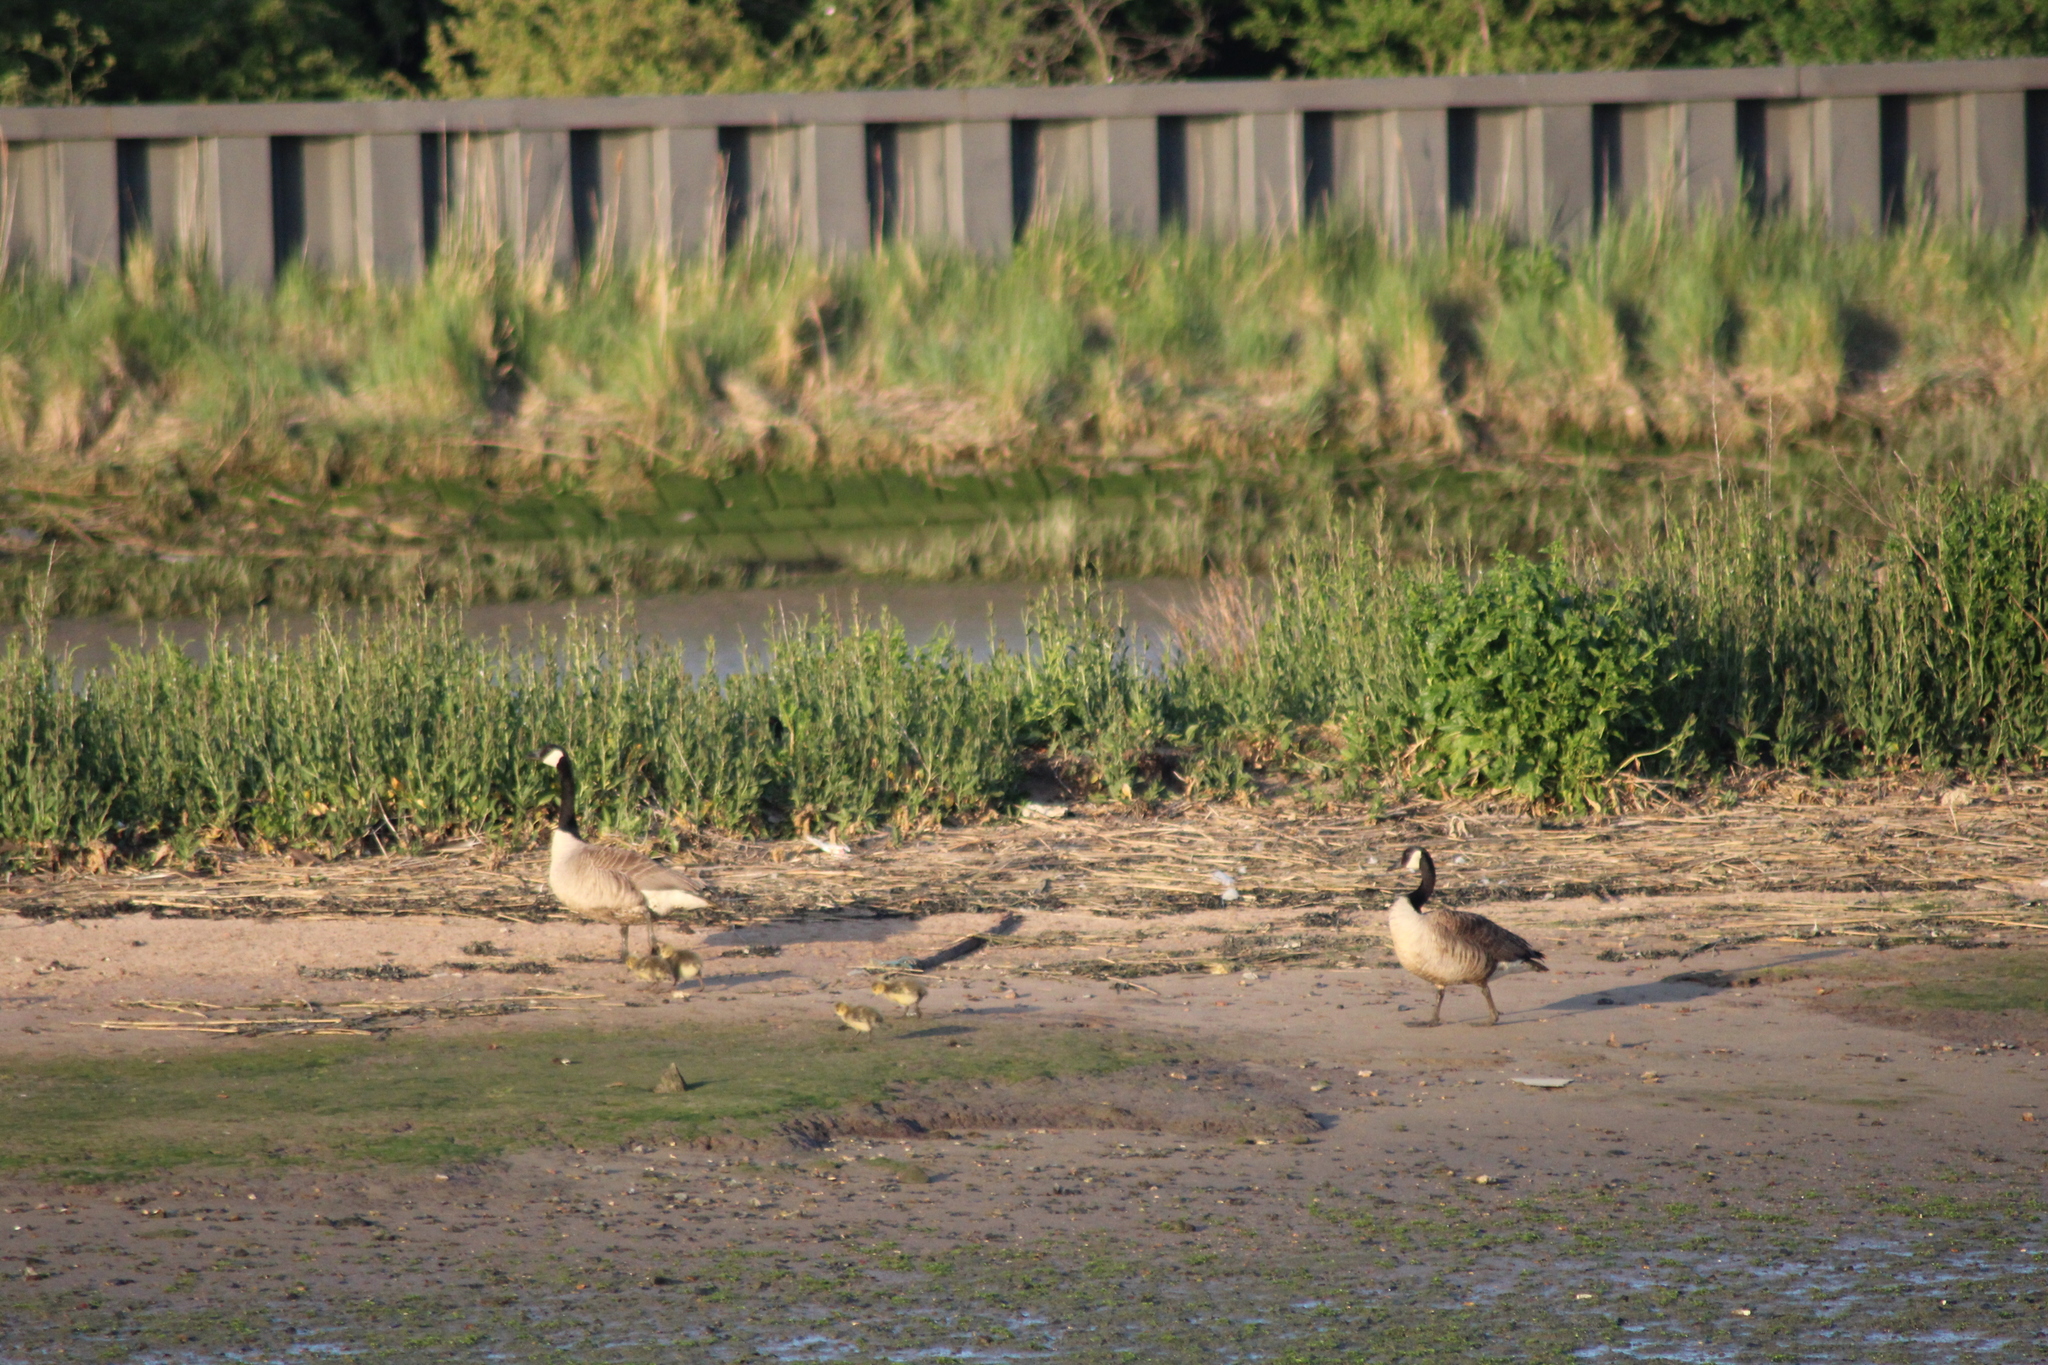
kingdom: Animalia
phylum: Chordata
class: Aves
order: Anseriformes
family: Anatidae
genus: Branta
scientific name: Branta canadensis
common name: Canada goose
